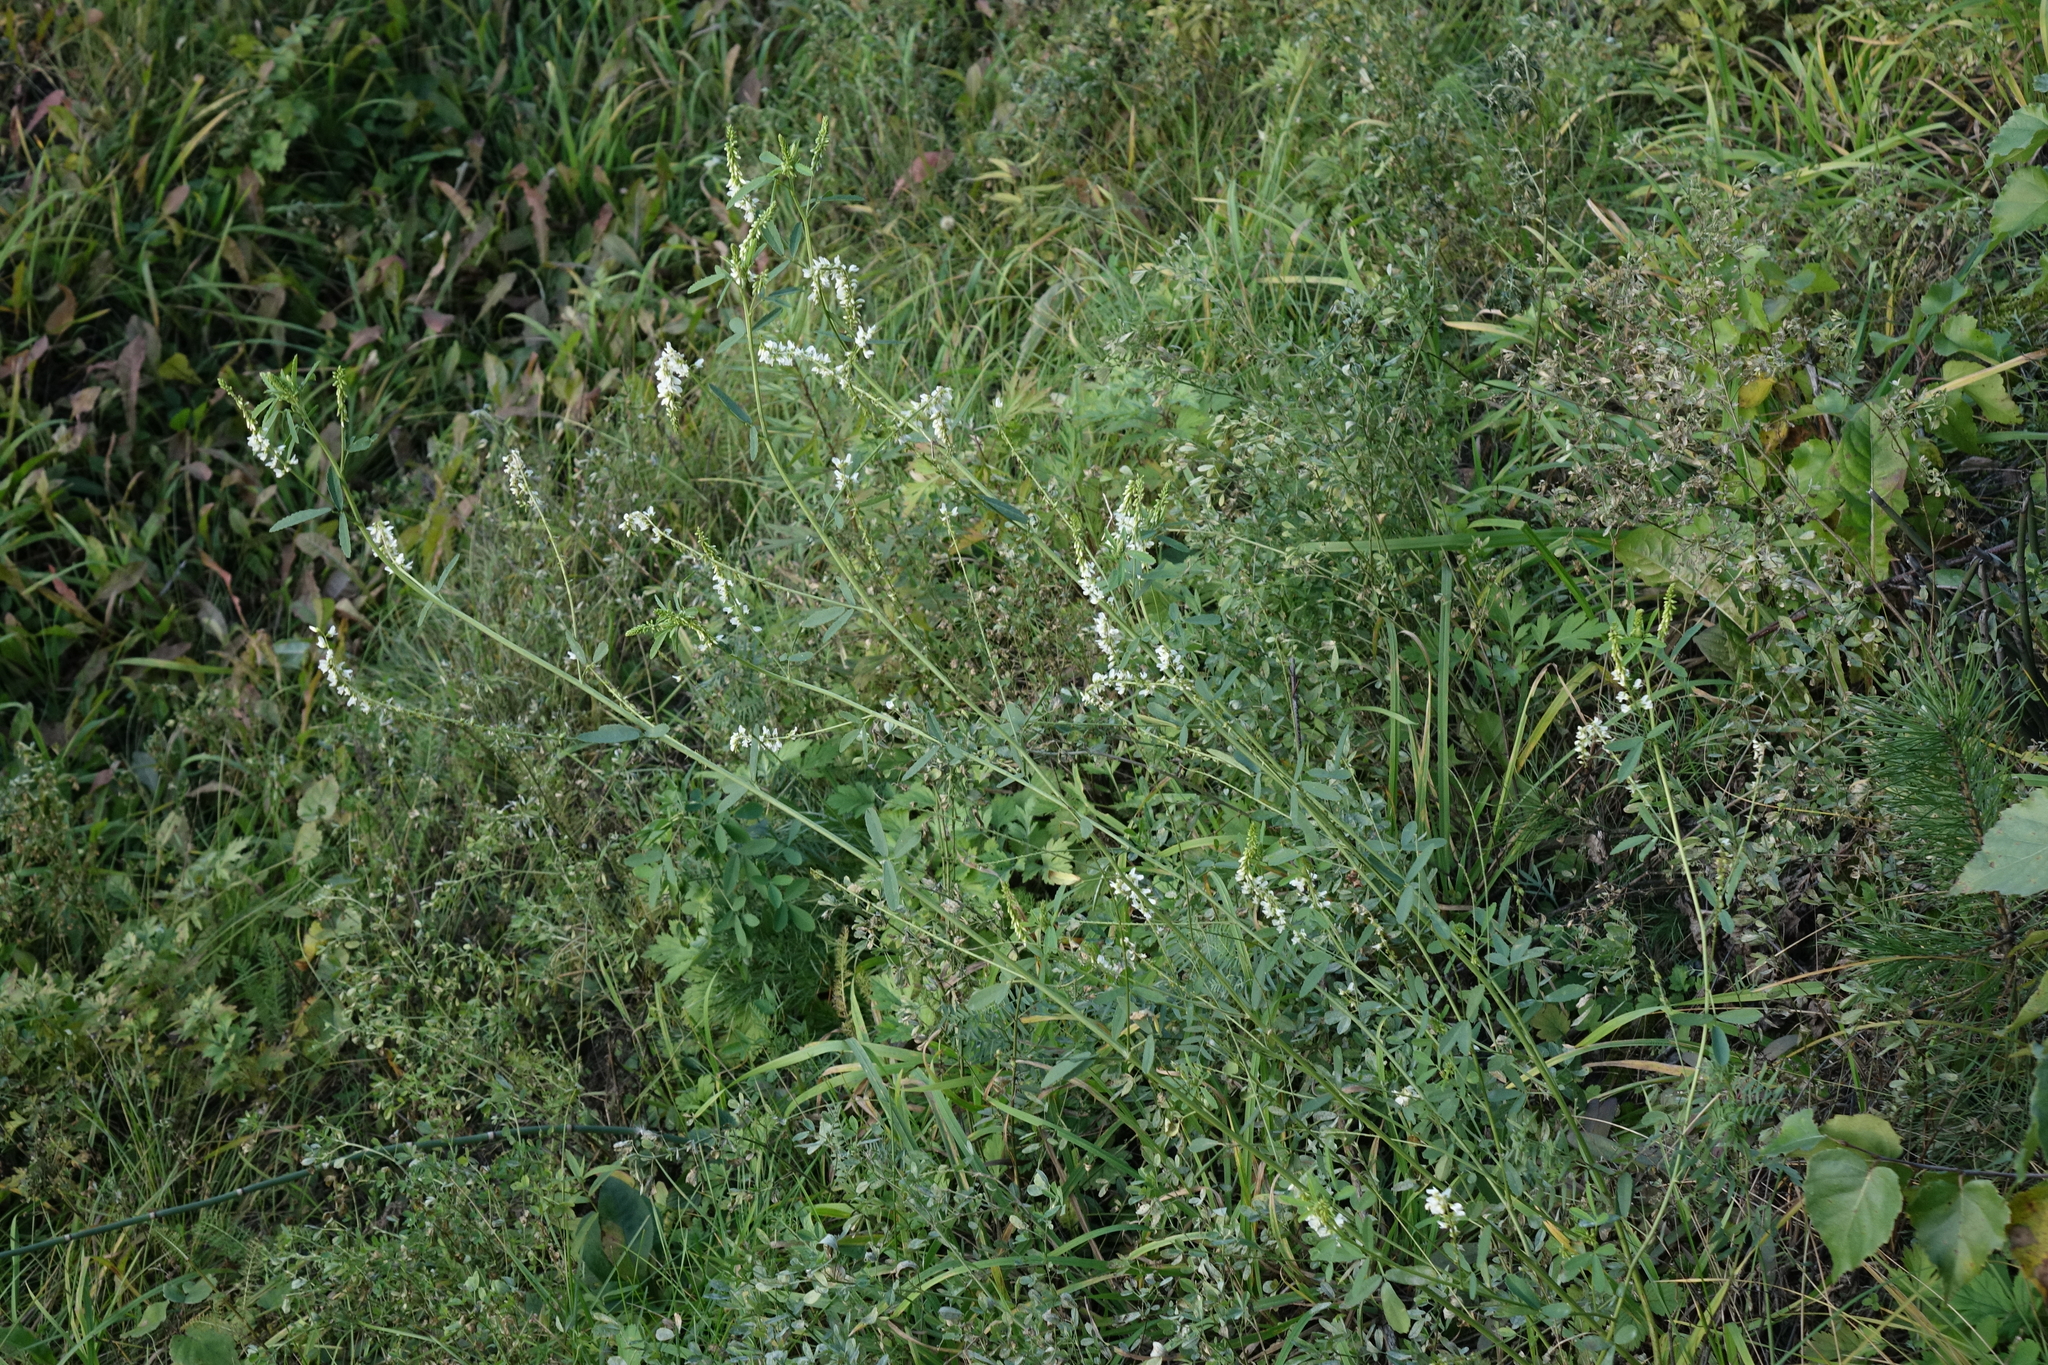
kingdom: Plantae
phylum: Tracheophyta
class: Magnoliopsida
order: Fabales
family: Fabaceae
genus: Melilotus
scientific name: Melilotus albus
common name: White melilot
